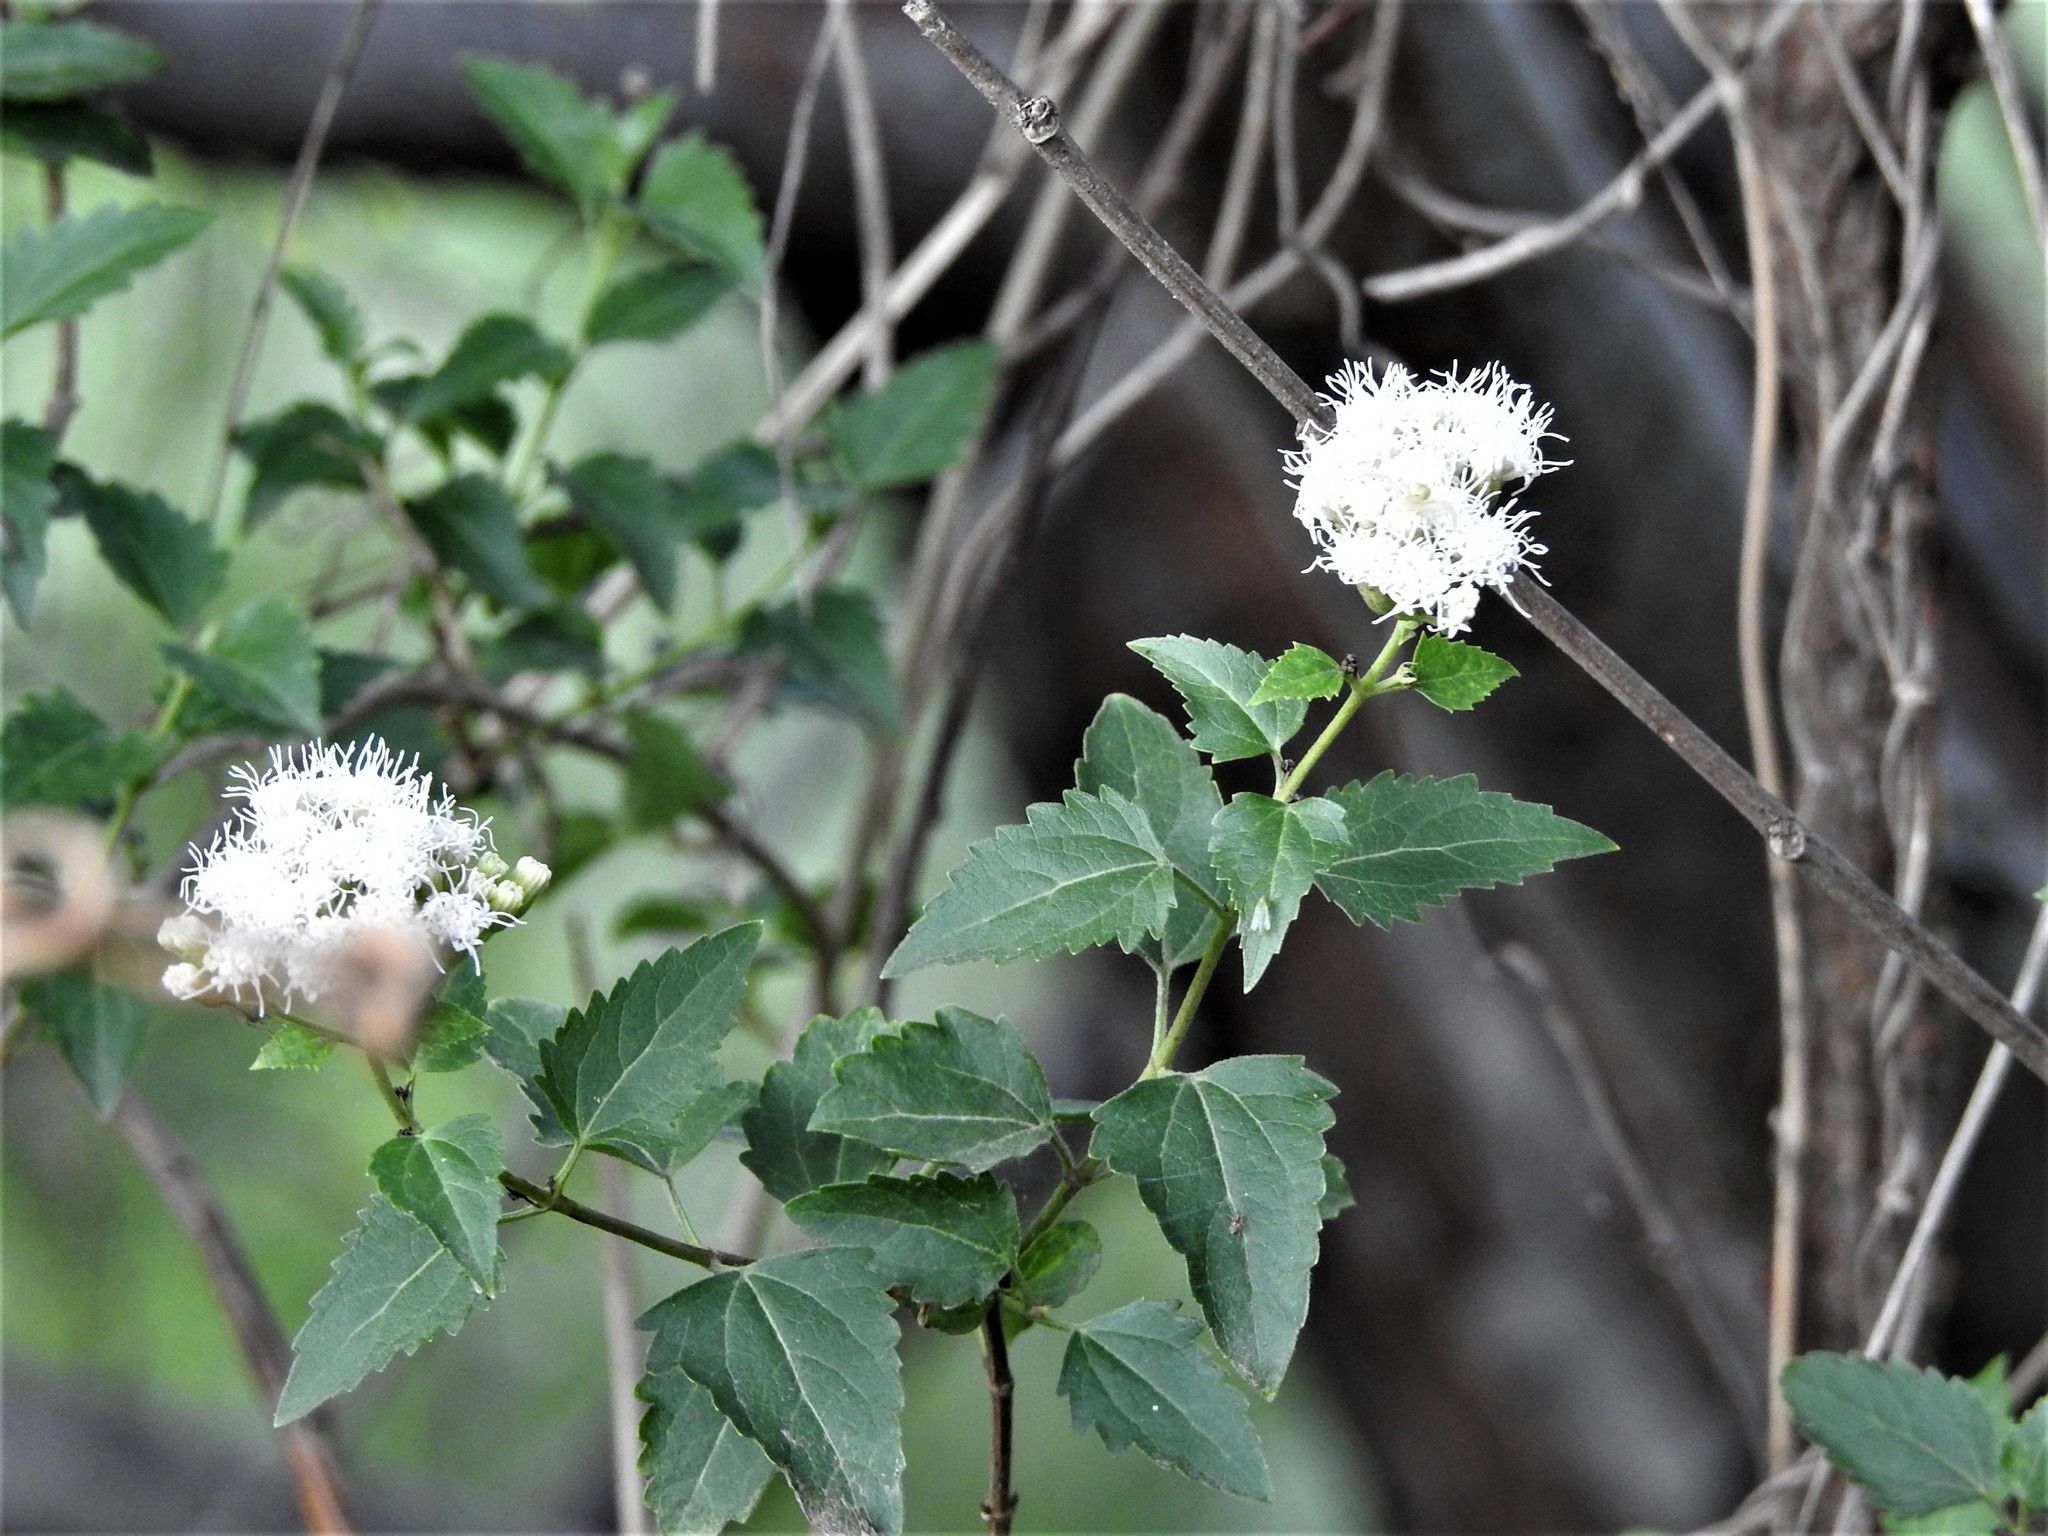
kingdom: Plantae
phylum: Tracheophyta
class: Magnoliopsida
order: Asterales
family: Asteraceae
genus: Ageratina
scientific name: Ageratina havanensis
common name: Havana snakeroot
